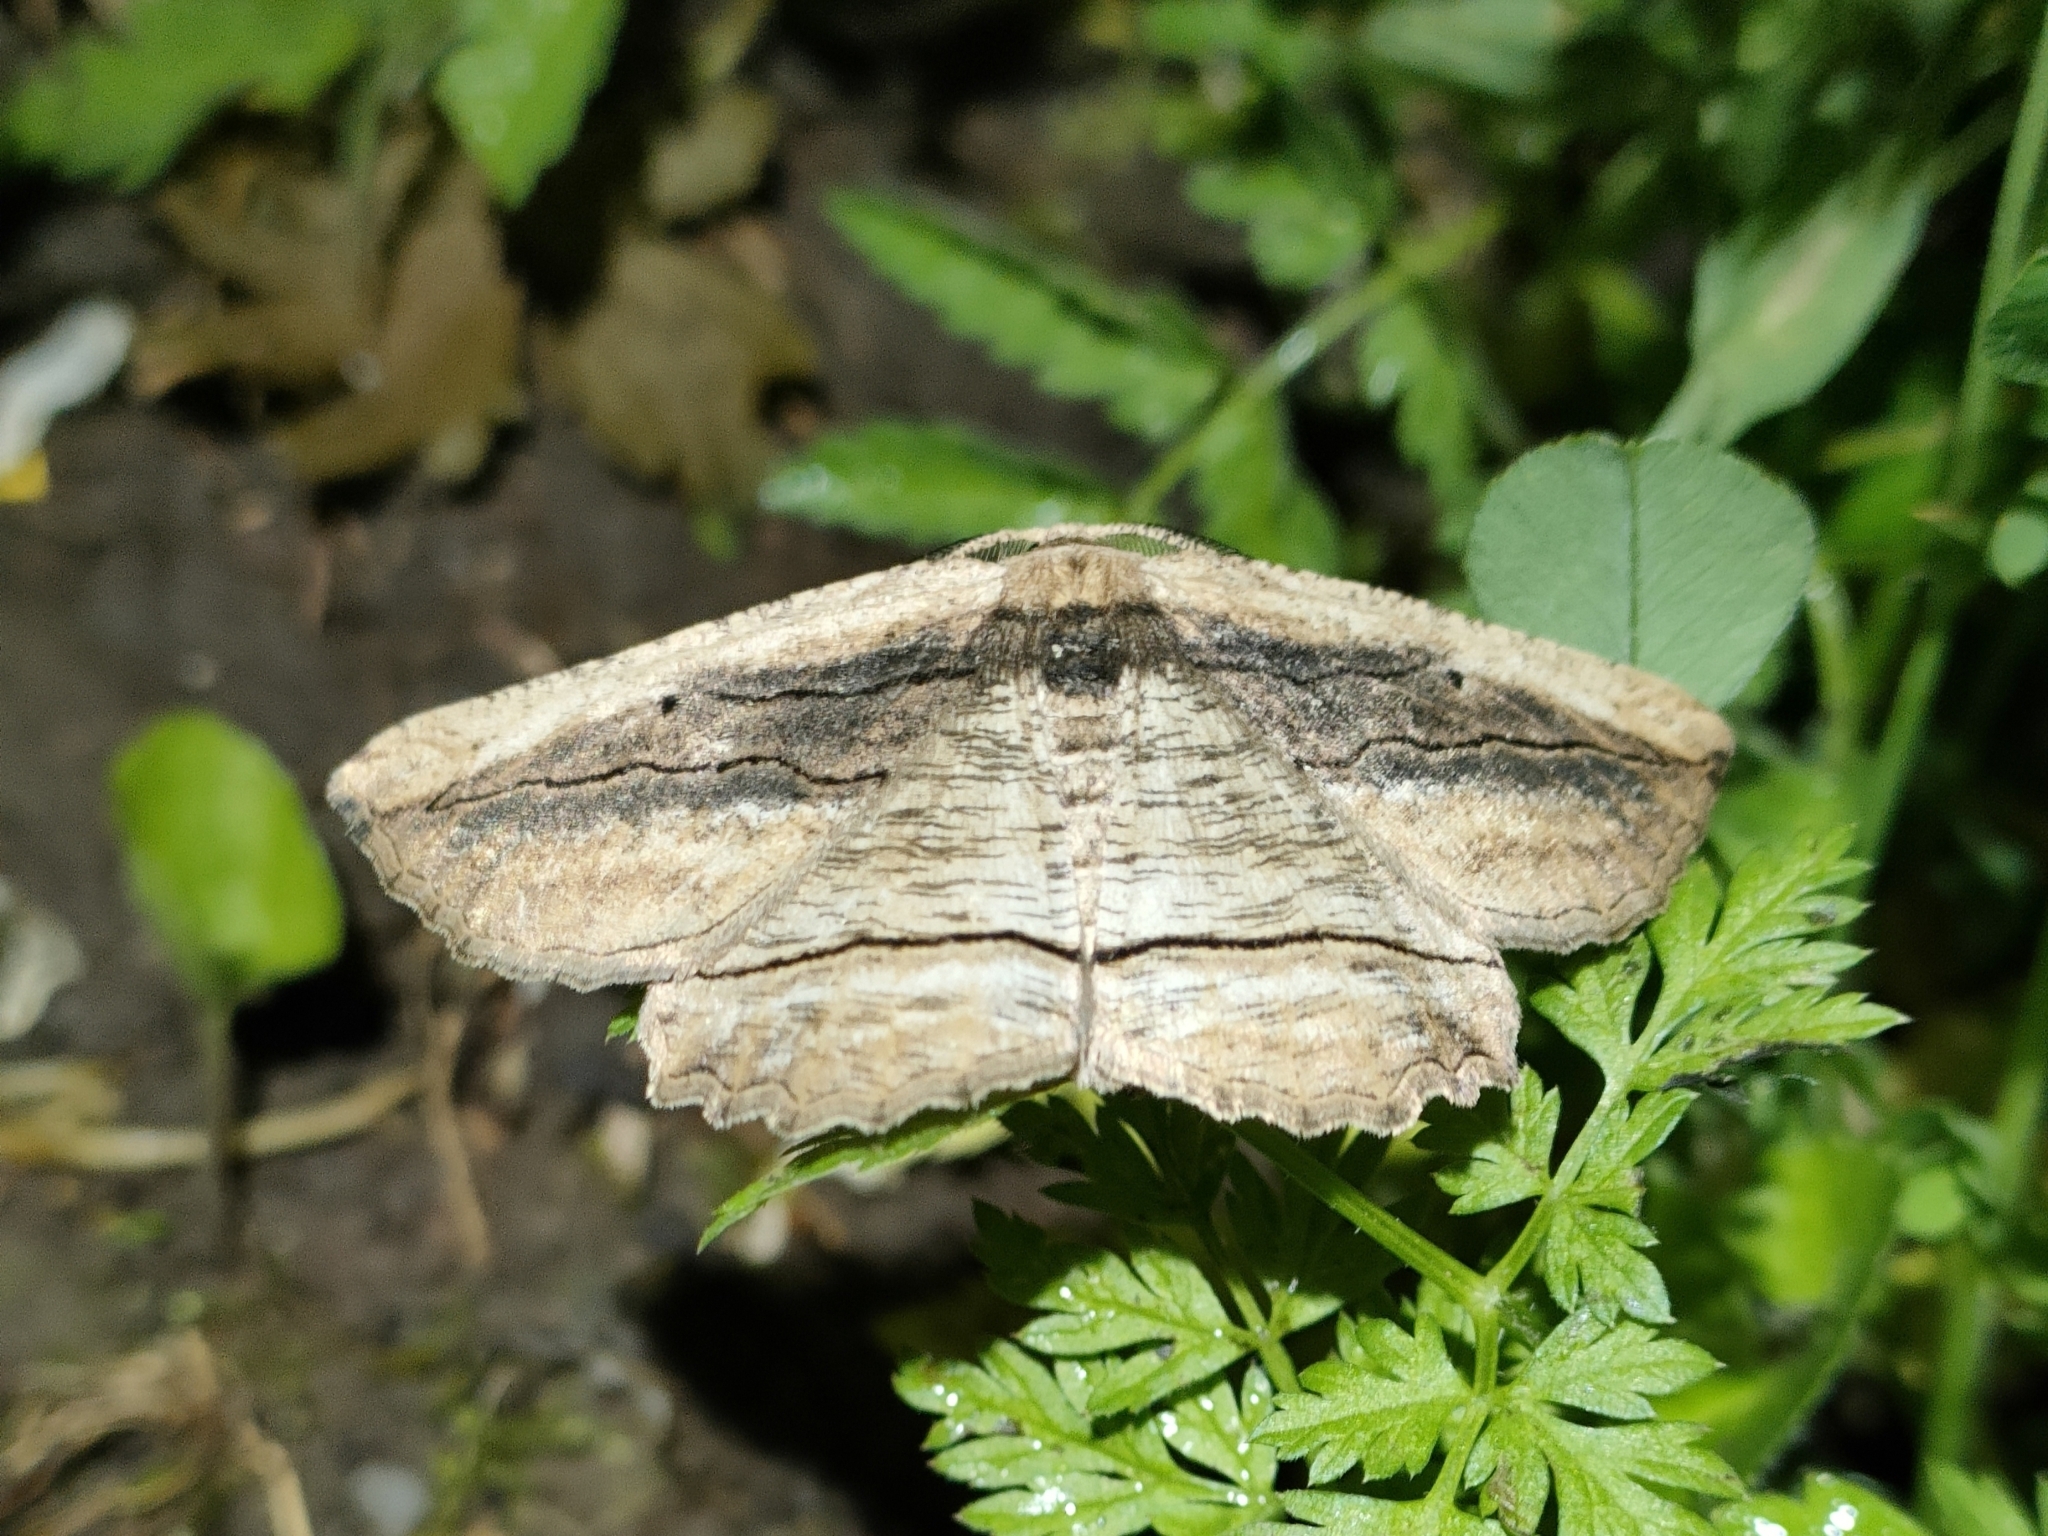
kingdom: Animalia
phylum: Arthropoda
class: Insecta
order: Lepidoptera
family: Geometridae
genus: Menophra
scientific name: Menophra nycthemeraria
